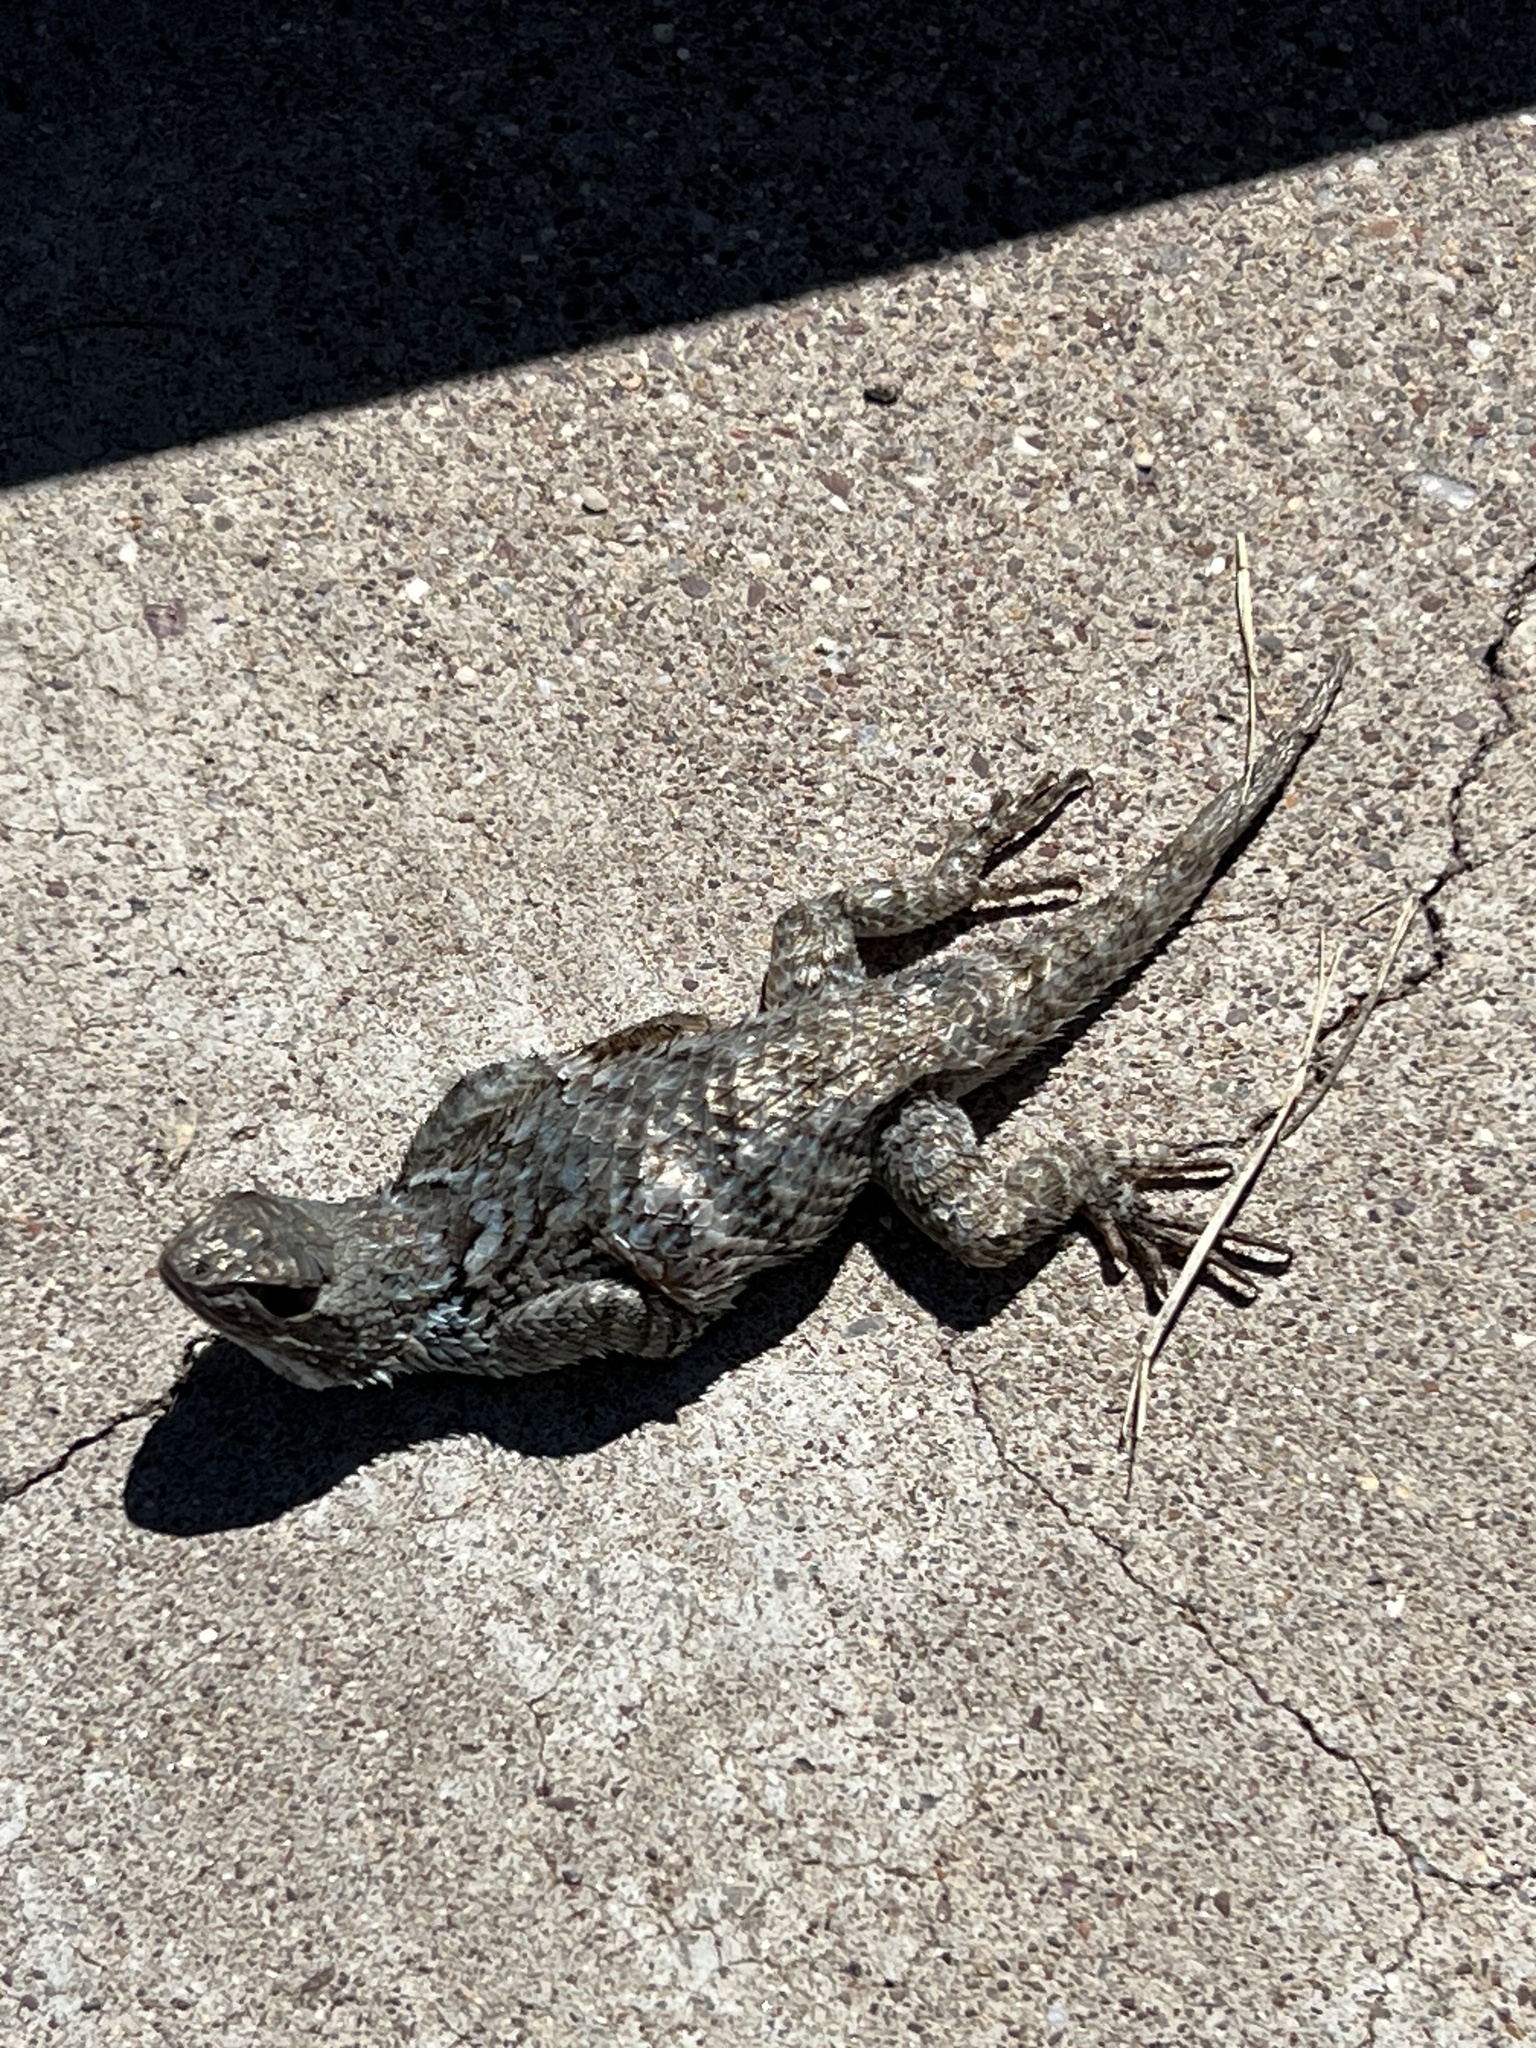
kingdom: Animalia
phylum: Chordata
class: Squamata
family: Phrynosomatidae
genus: Sceloporus
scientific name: Sceloporus clarkii
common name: Clark's spiny lizard
